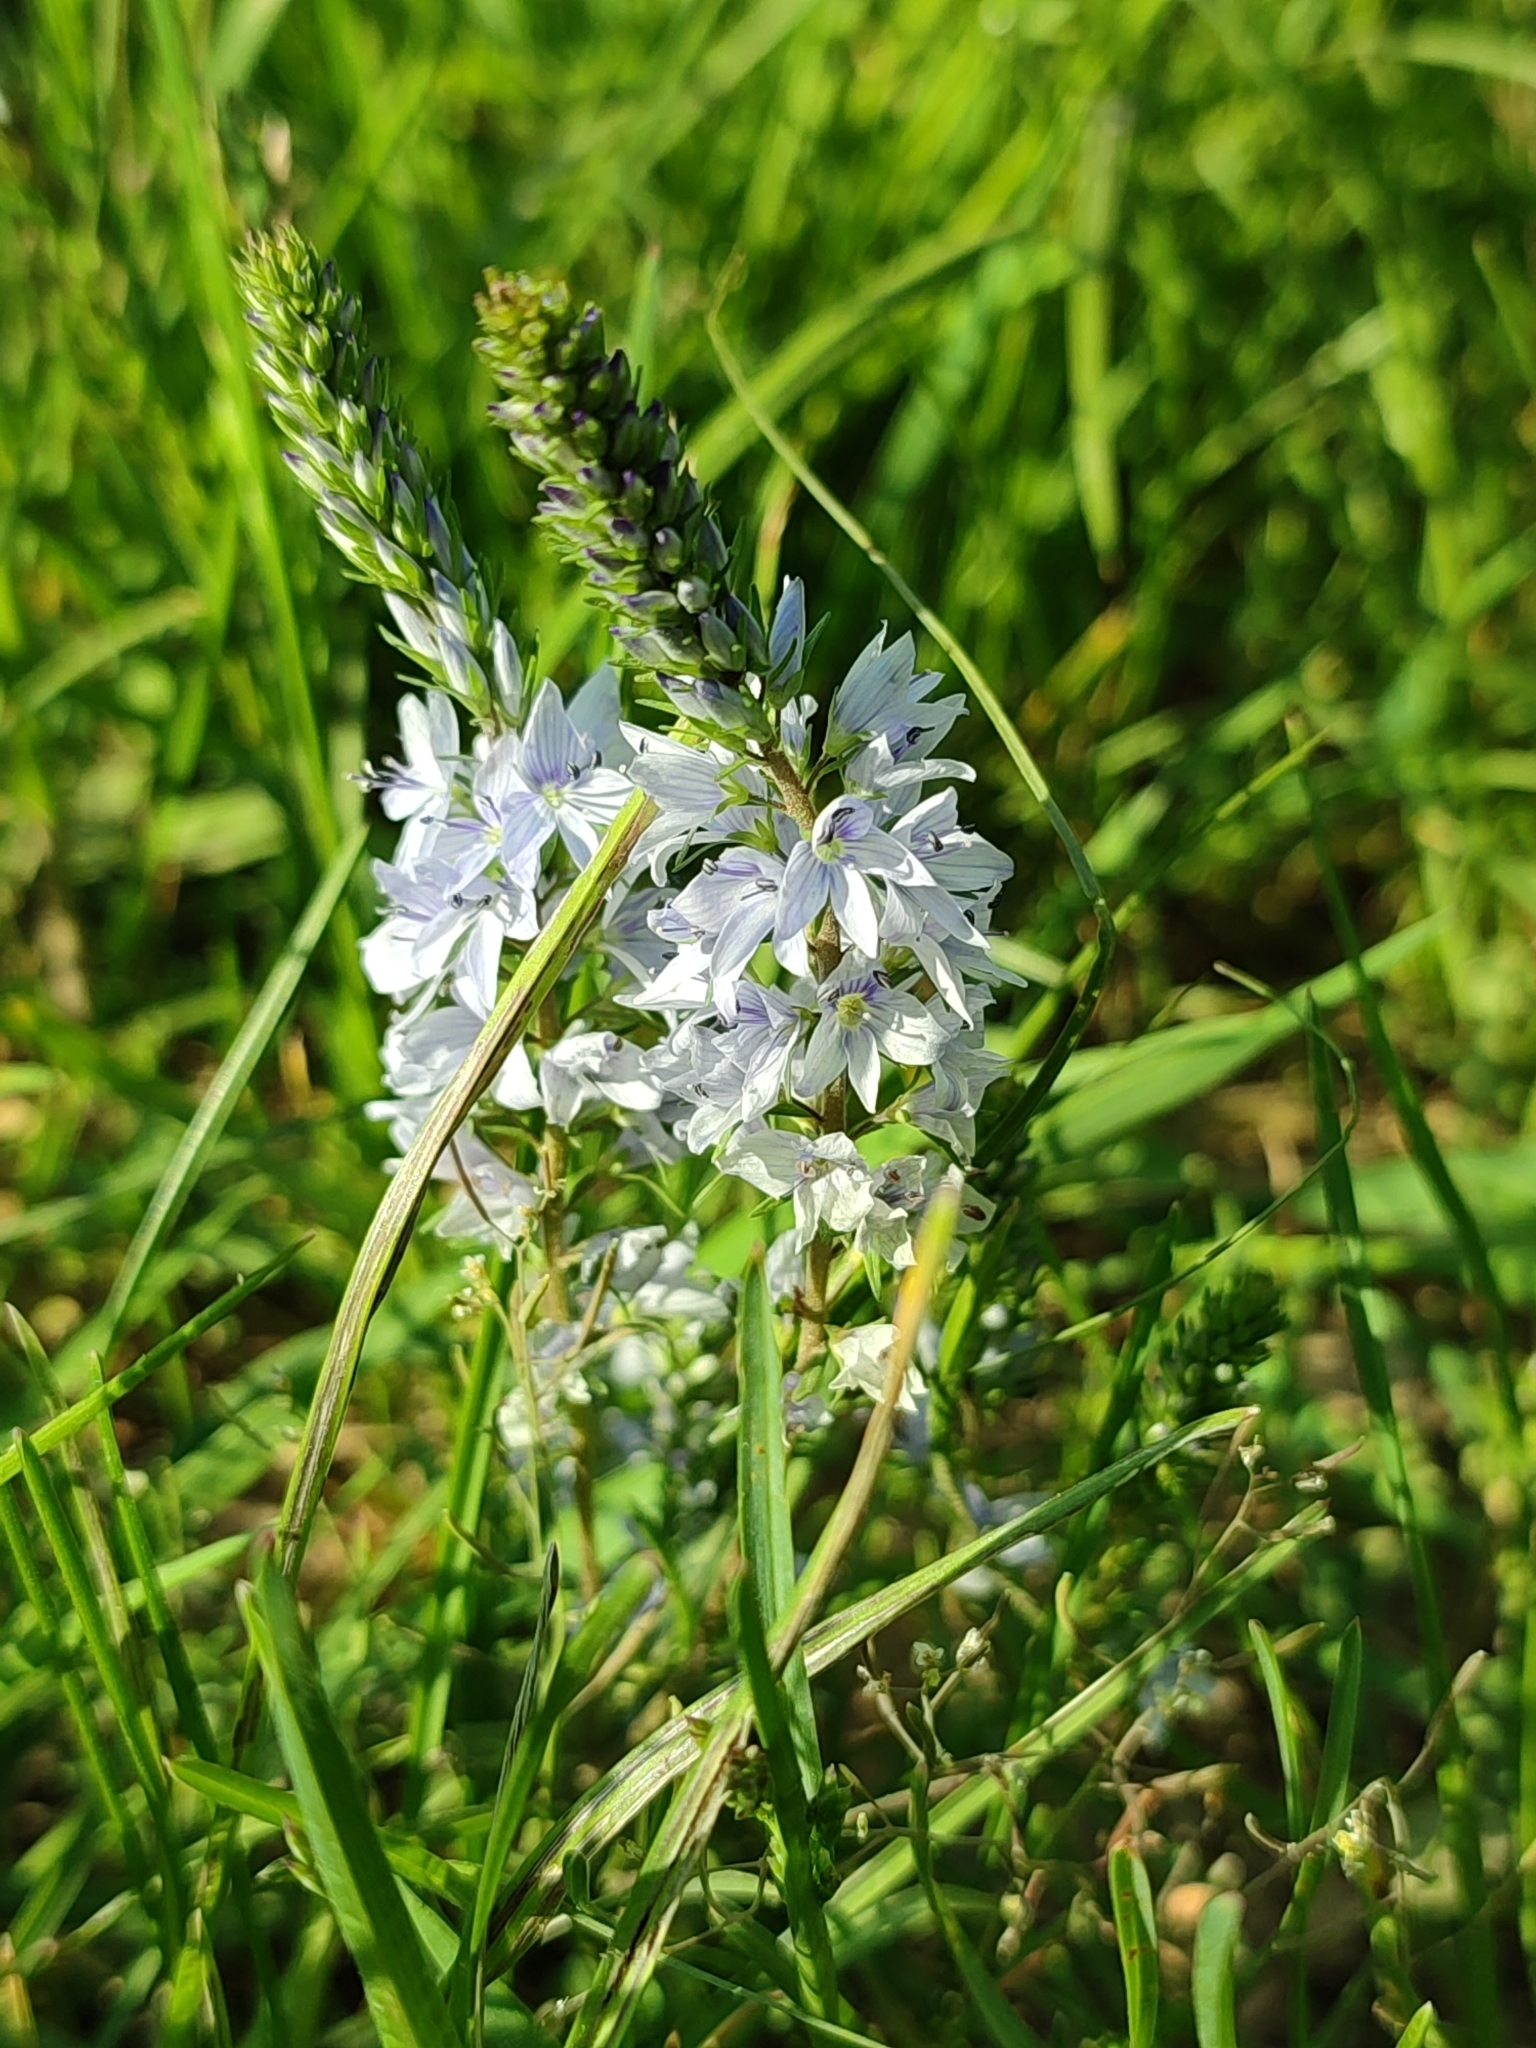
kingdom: Plantae
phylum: Tracheophyta
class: Magnoliopsida
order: Lamiales
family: Plantaginaceae
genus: Veronica
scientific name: Veronica prostrata
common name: Prostrate speedwell
